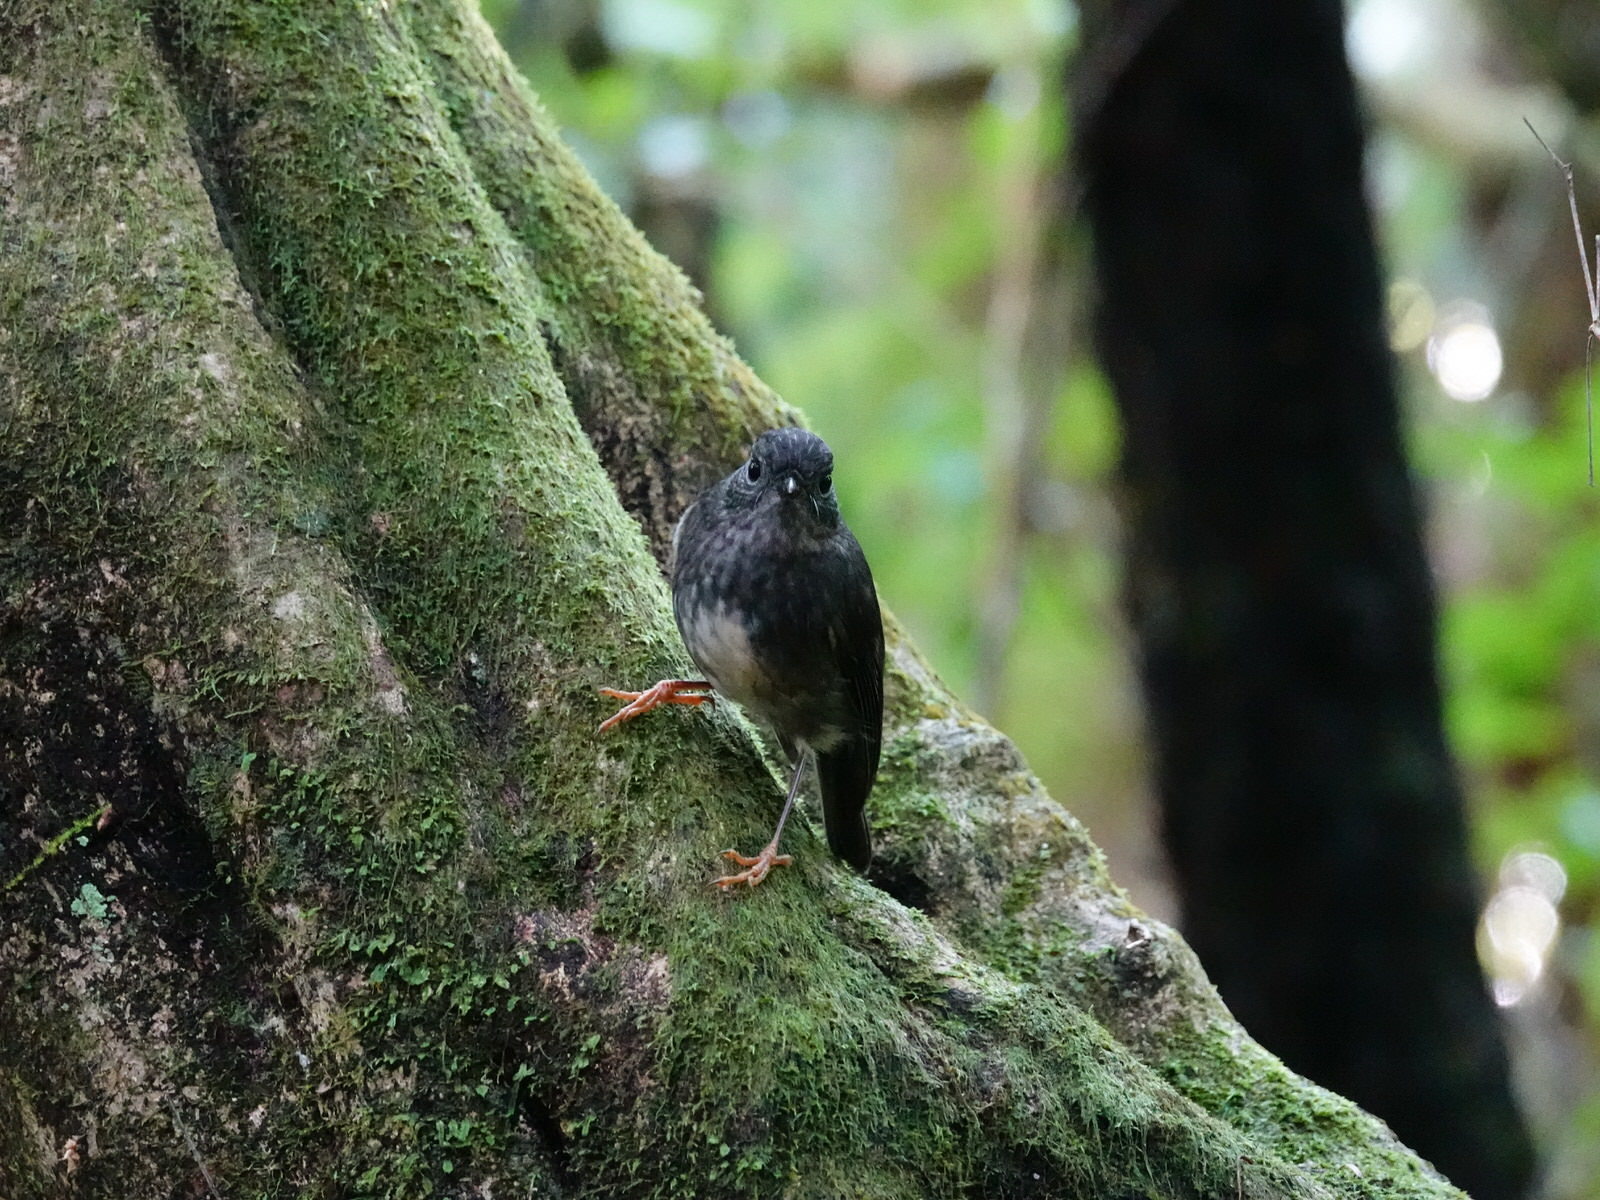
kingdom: Animalia
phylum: Chordata
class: Aves
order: Passeriformes
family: Petroicidae
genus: Petroica
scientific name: Petroica australis
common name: New zealand robin
